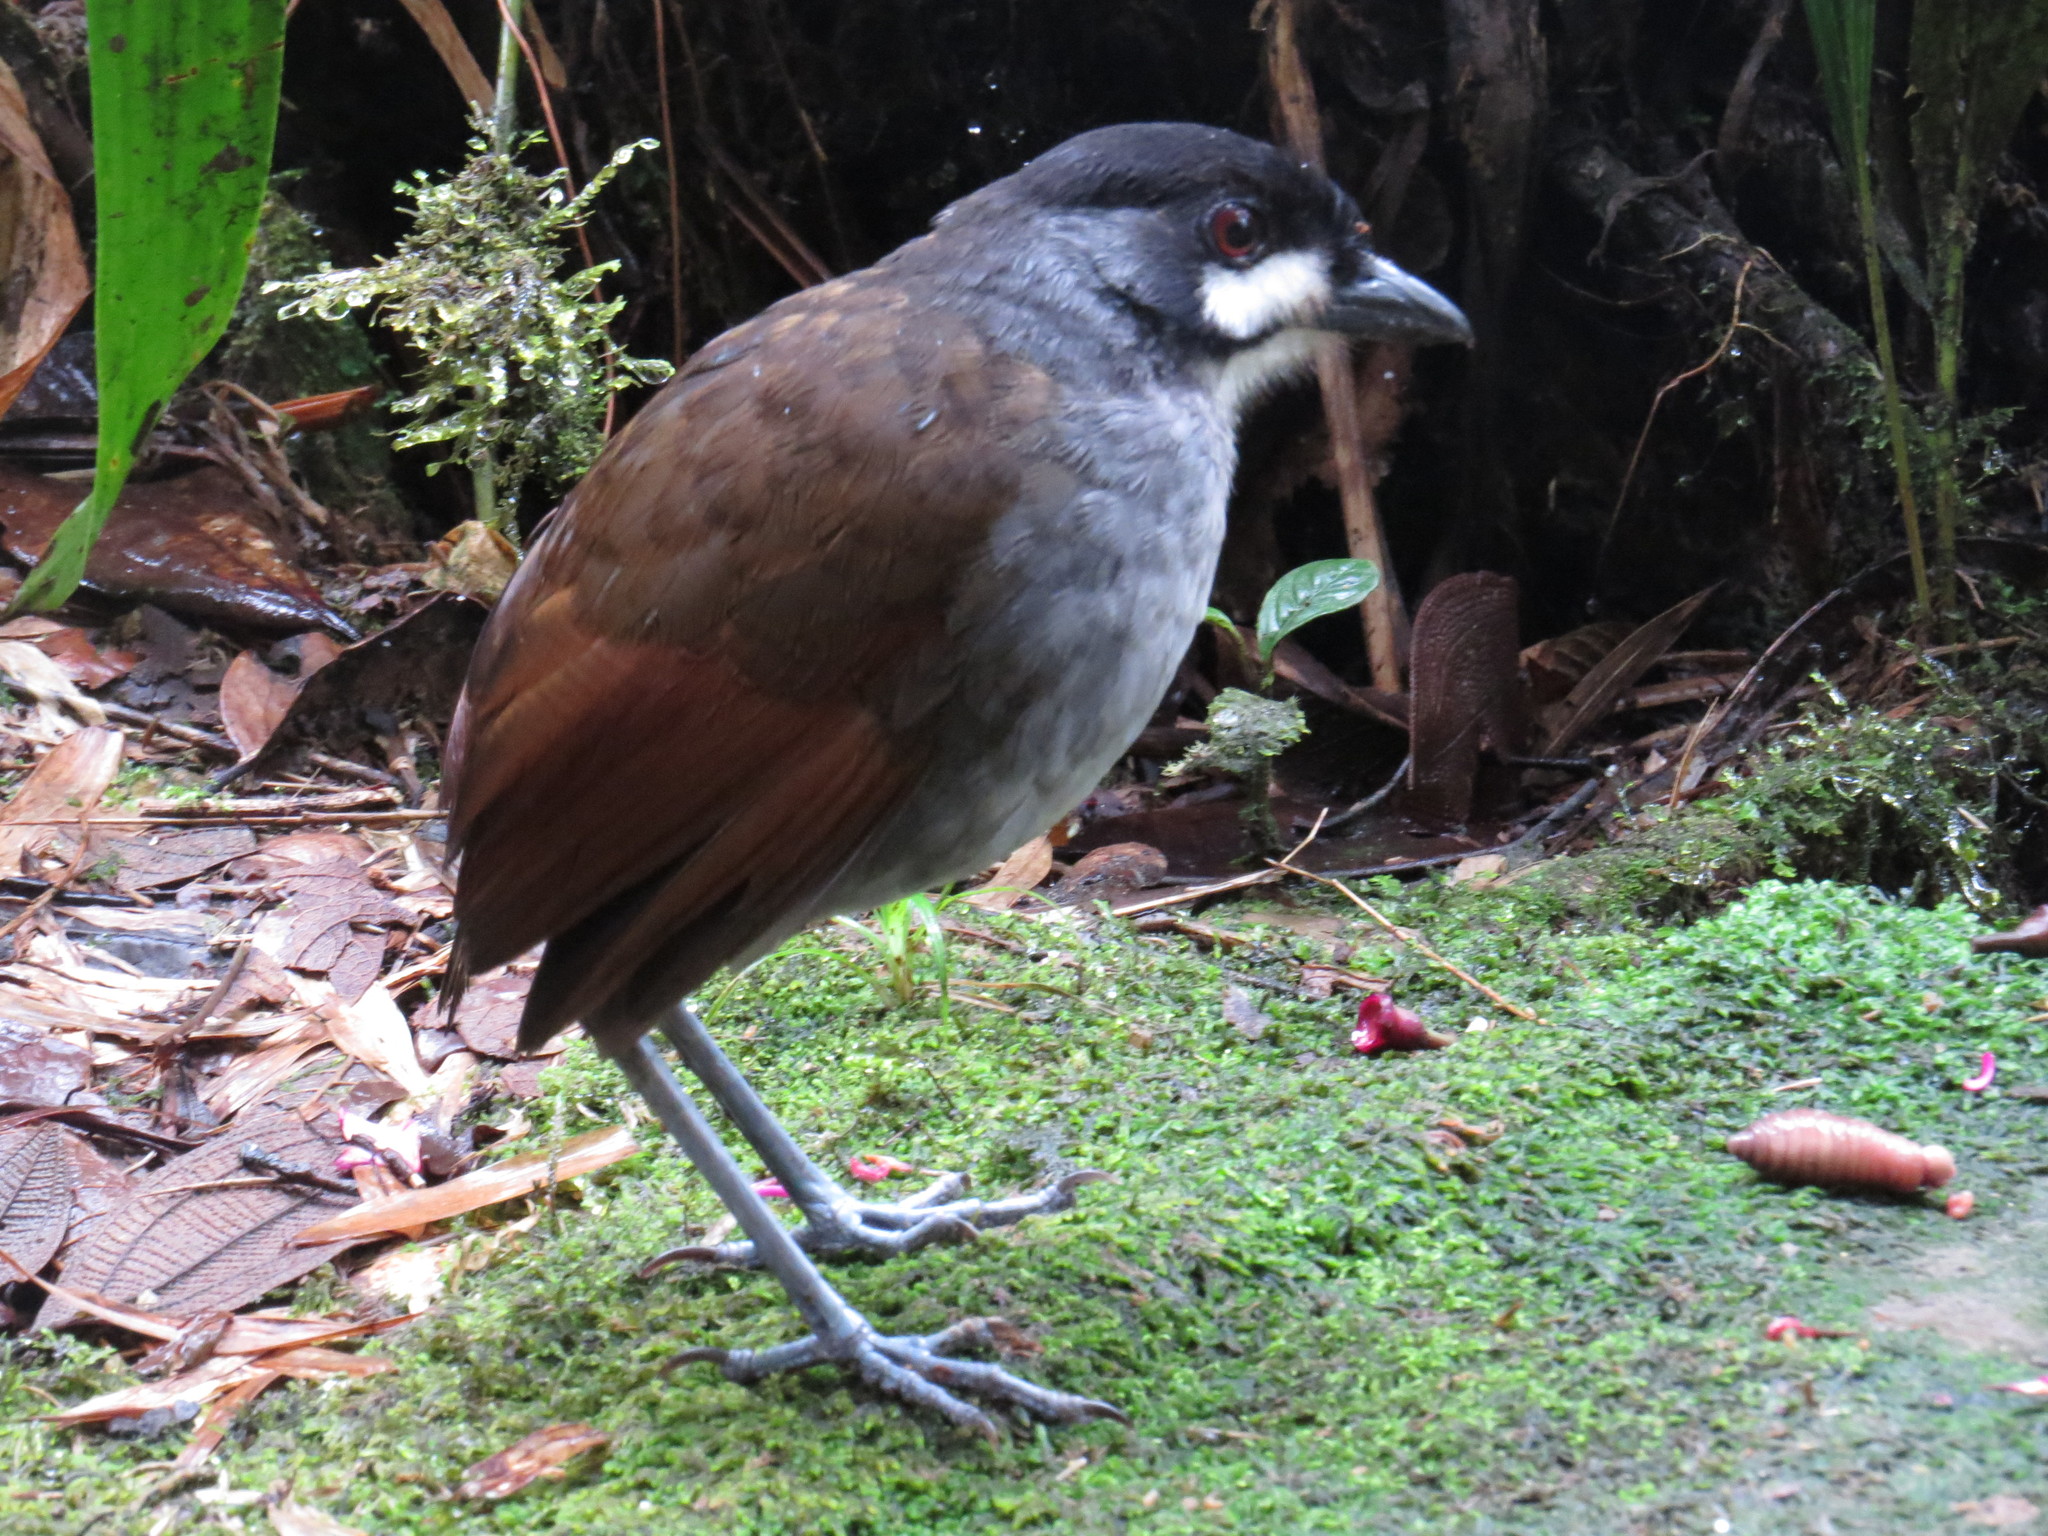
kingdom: Animalia
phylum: Chordata
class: Aves
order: Passeriformes
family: Grallariidae
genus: Grallaria
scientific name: Grallaria ridgelyi
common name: Jocotoco antpitta
